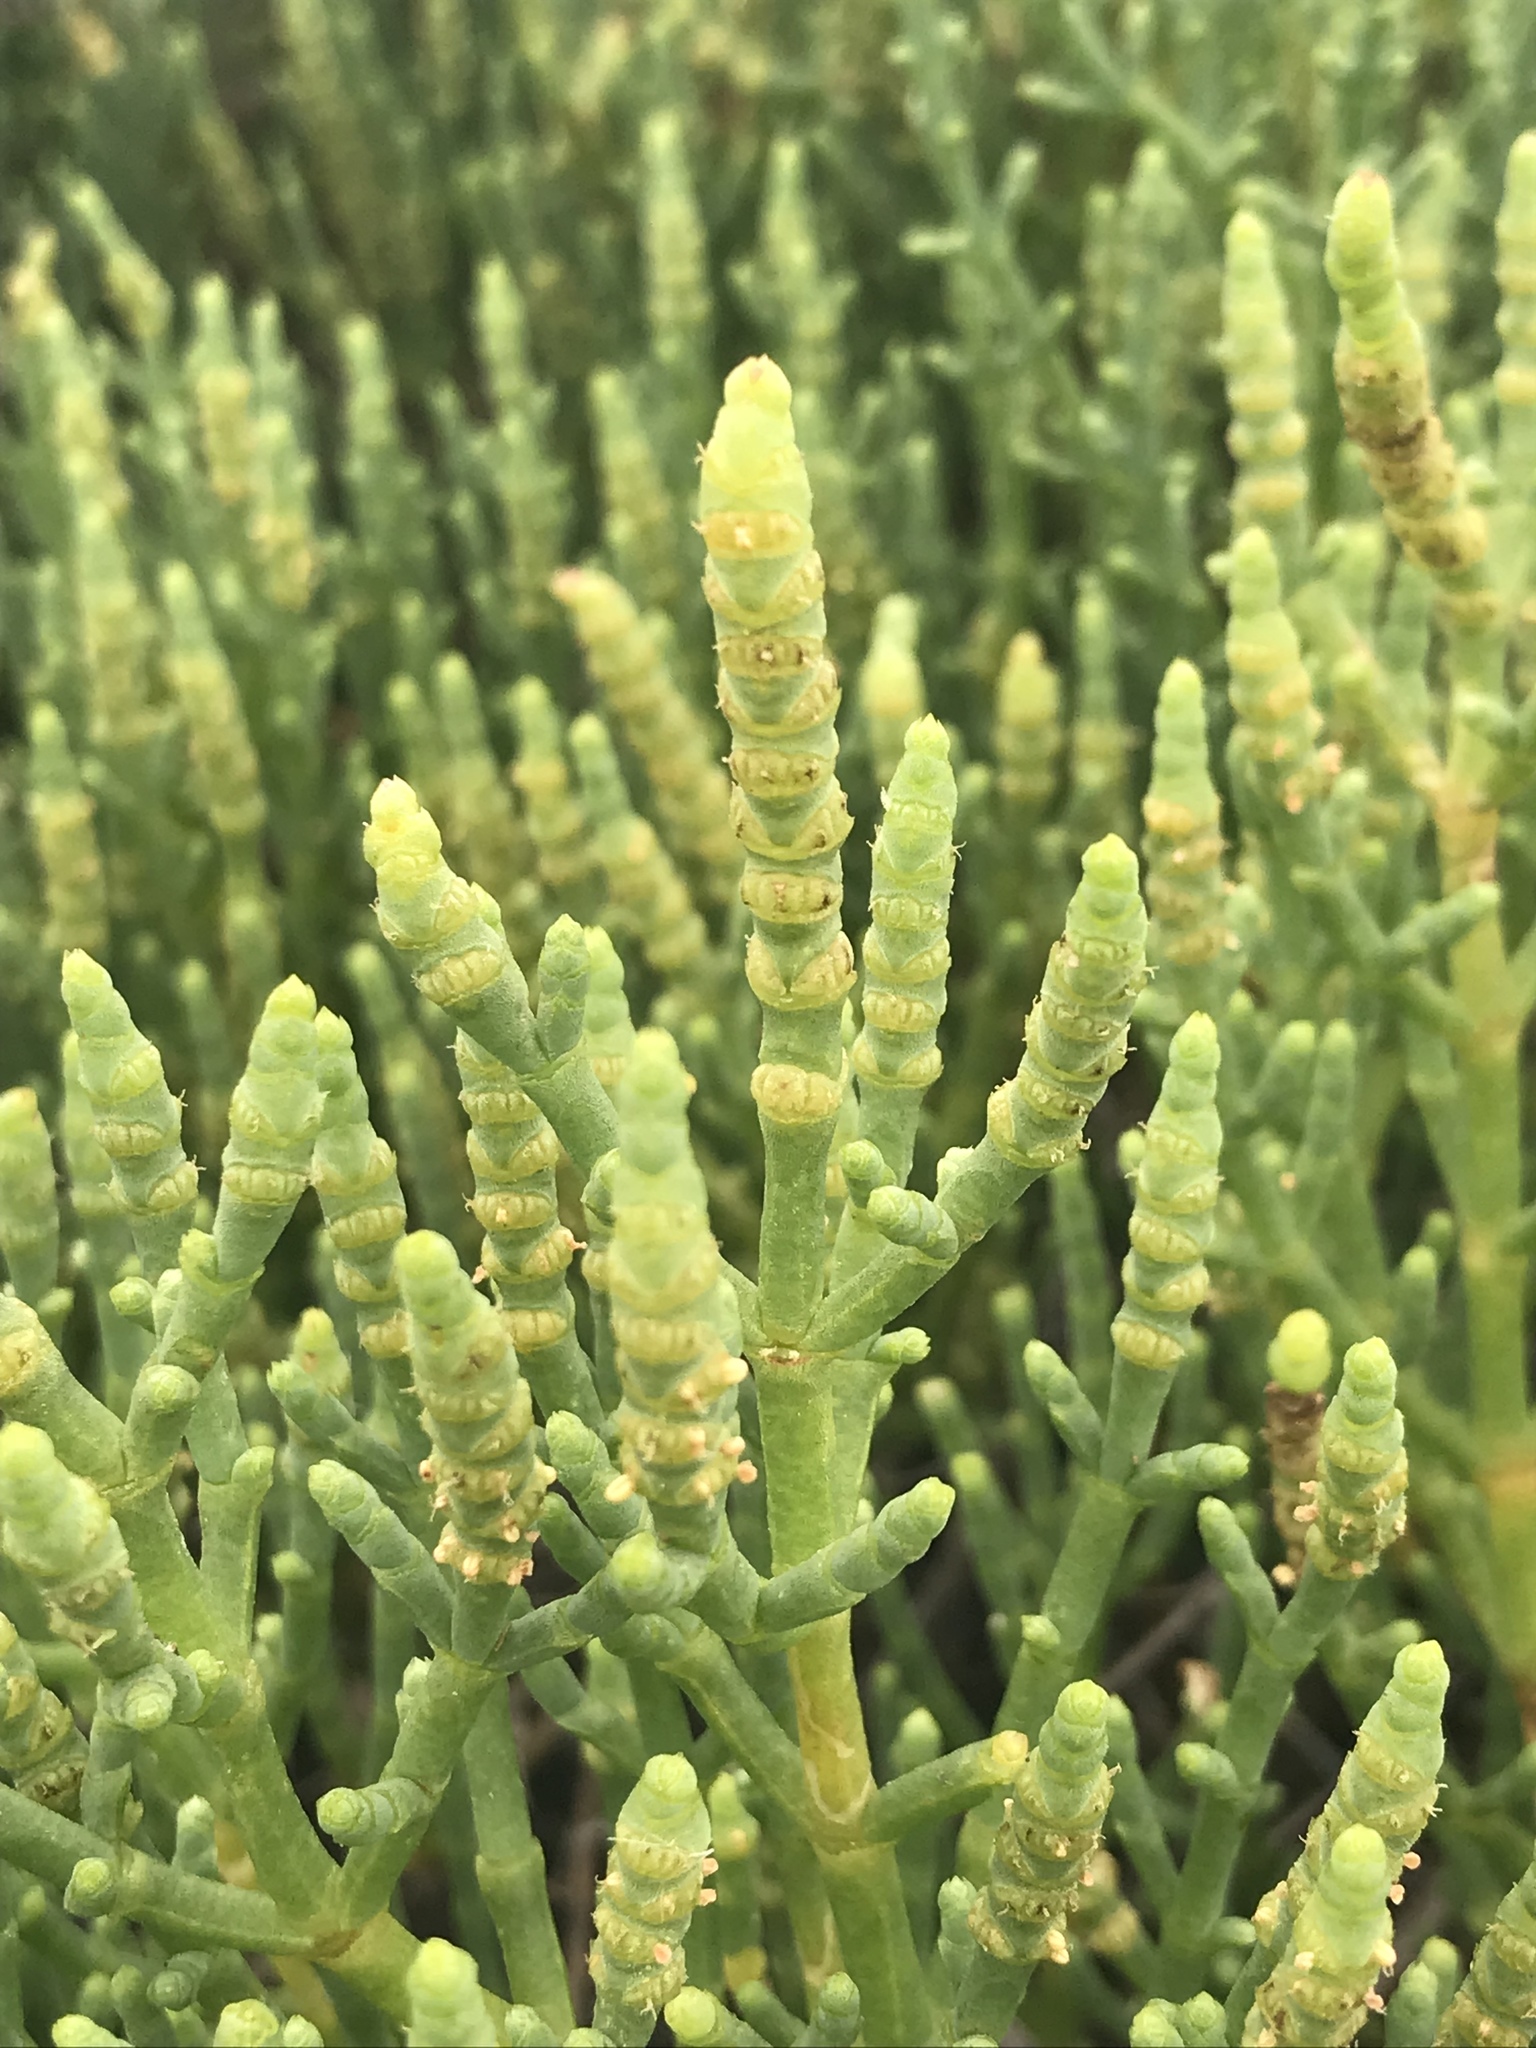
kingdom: Plantae
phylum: Tracheophyta
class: Magnoliopsida
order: Caryophyllales
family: Amaranthaceae
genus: Arthroceras
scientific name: Arthroceras subterminale
